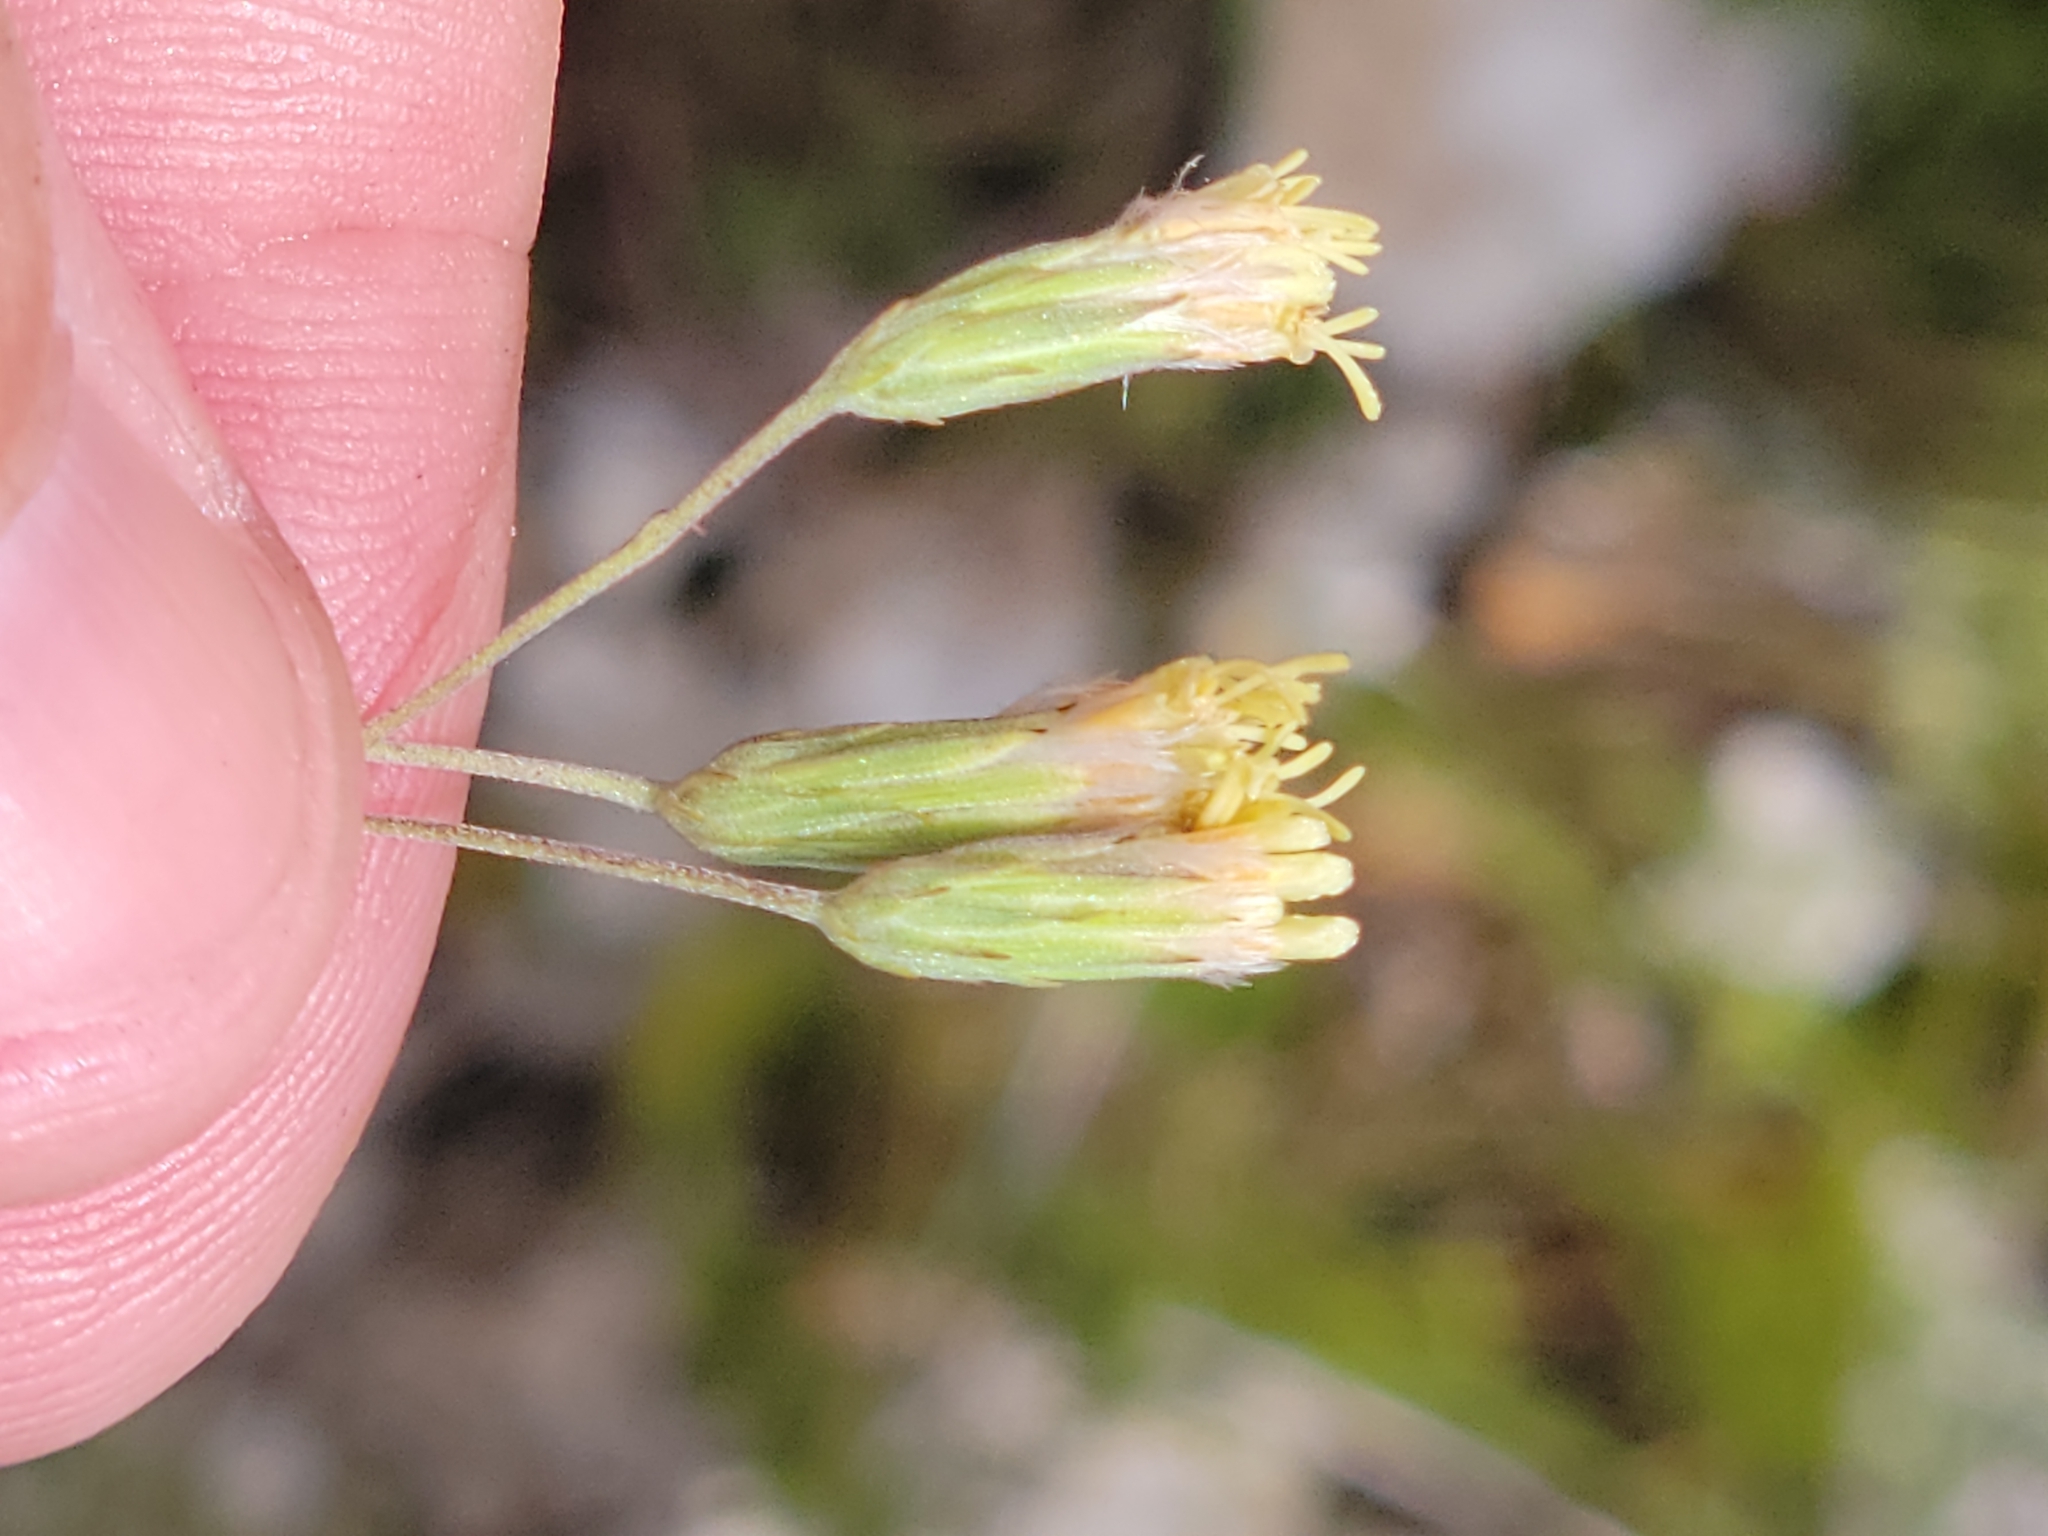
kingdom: Plantae
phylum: Tracheophyta
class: Magnoliopsida
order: Asterales
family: Asteraceae
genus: Brickellia
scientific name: Brickellia mosieri
